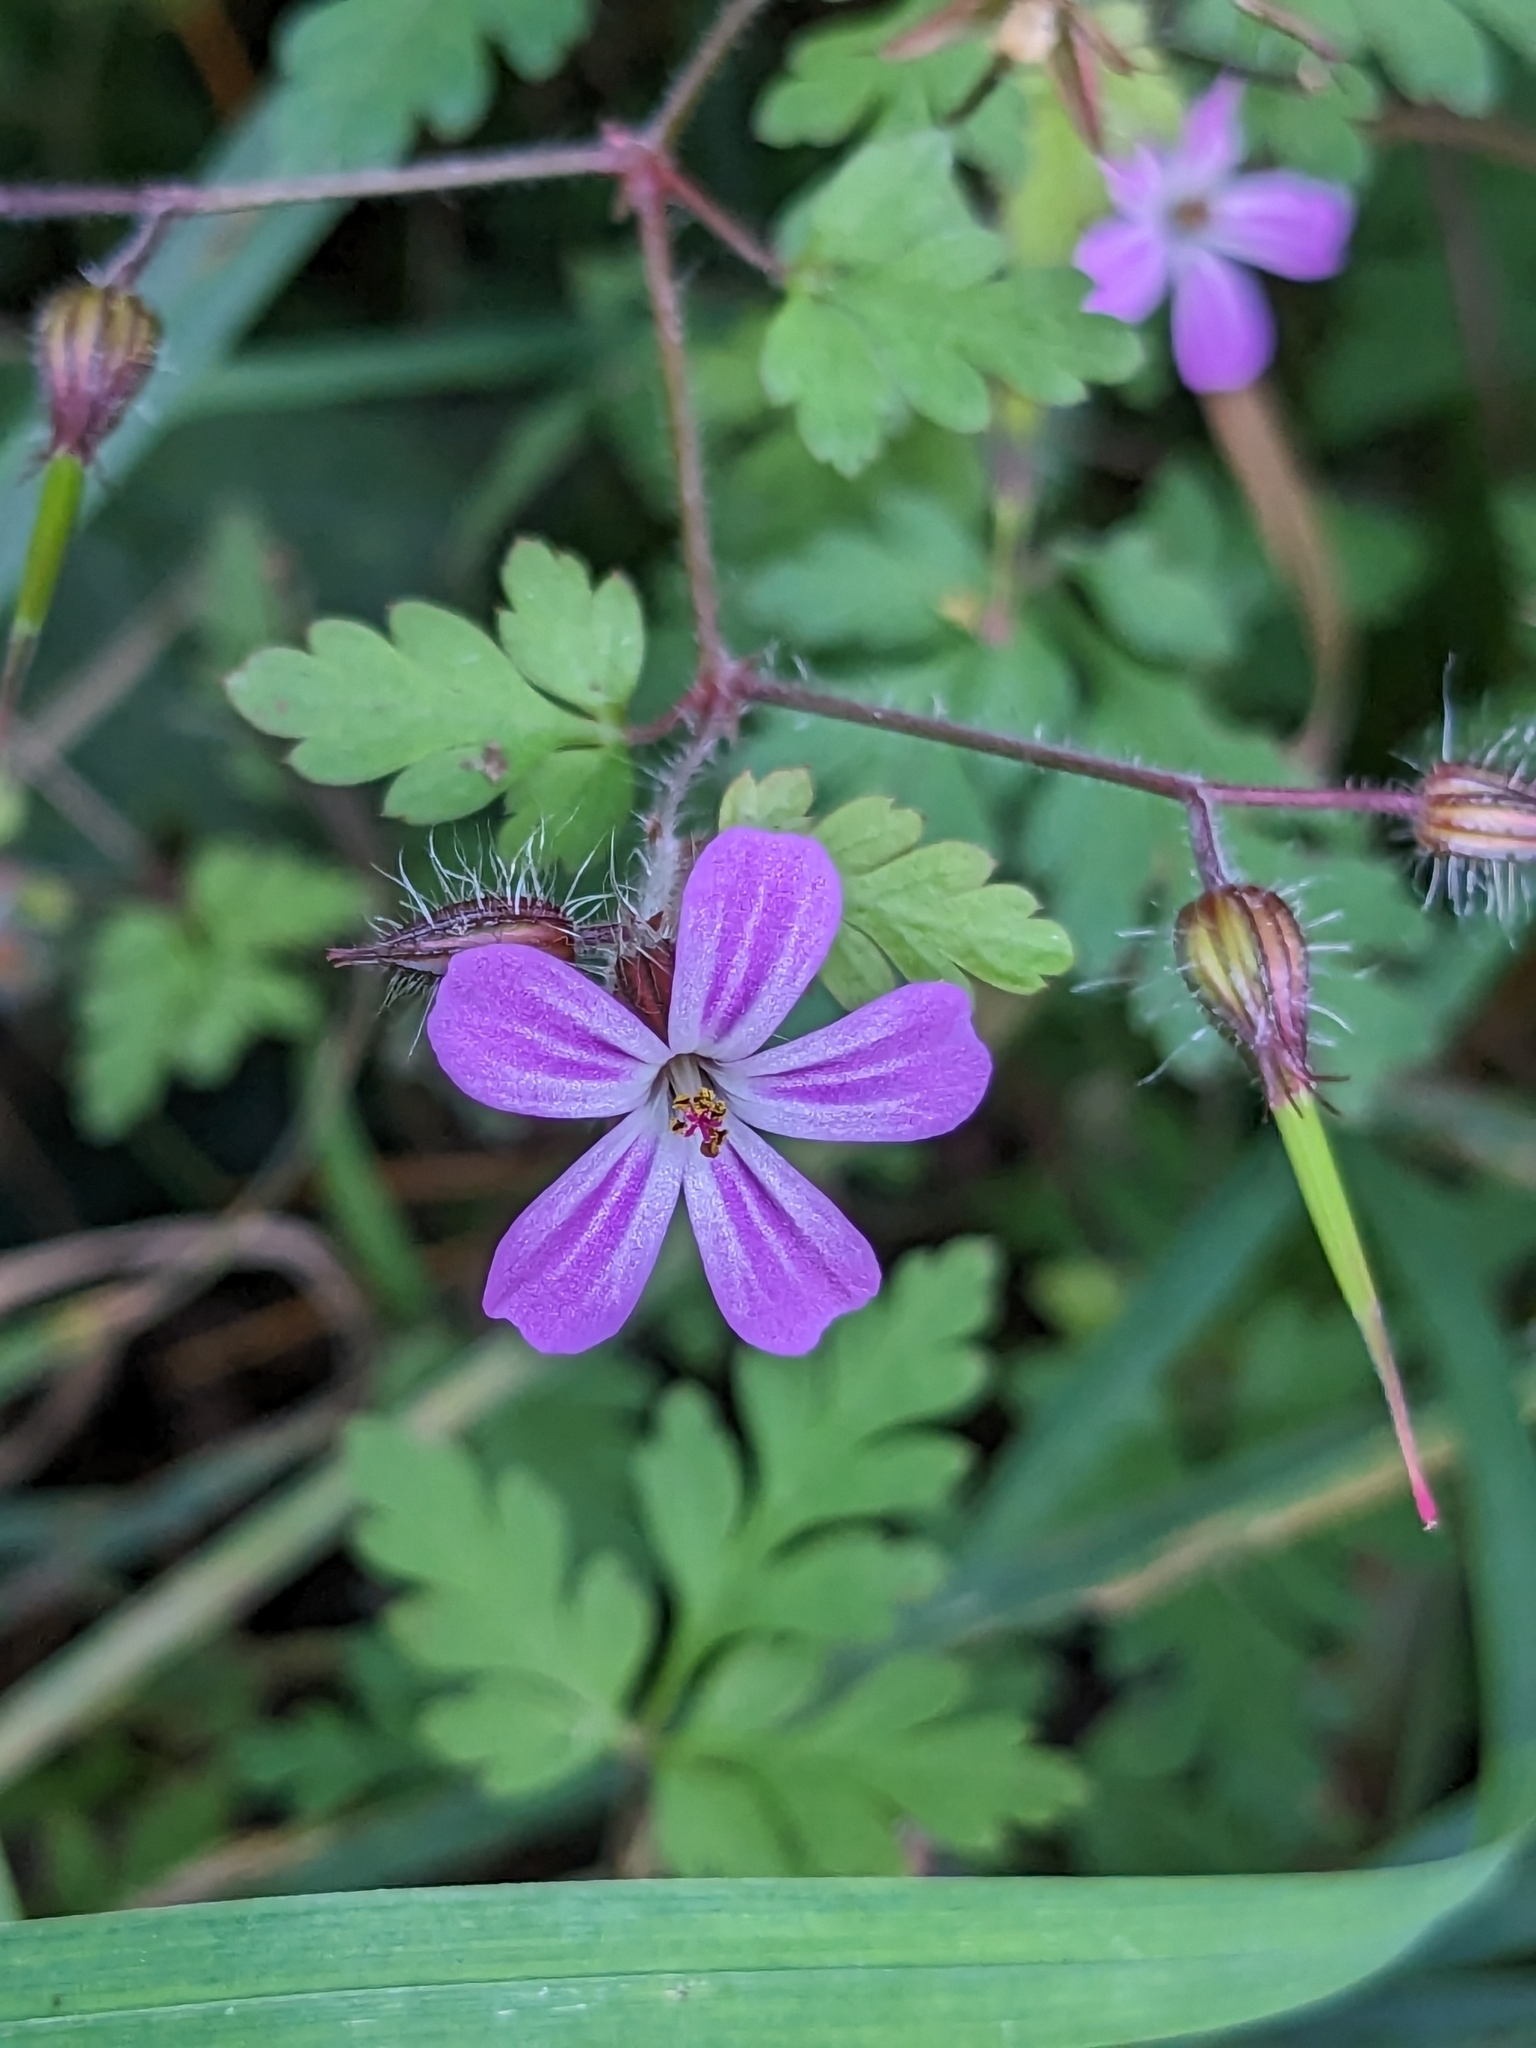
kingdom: Plantae
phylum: Tracheophyta
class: Magnoliopsida
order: Geraniales
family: Geraniaceae
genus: Geranium
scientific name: Geranium robertianum
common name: Herb-robert
